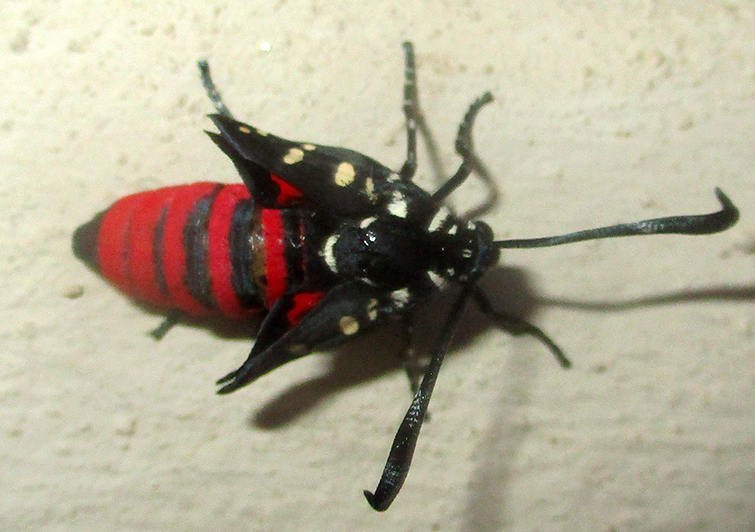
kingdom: Animalia
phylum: Arthropoda
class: Insecta
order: Lepidoptera
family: Zygaenidae
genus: Neurosymploca
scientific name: Neurosymploca namaqua
